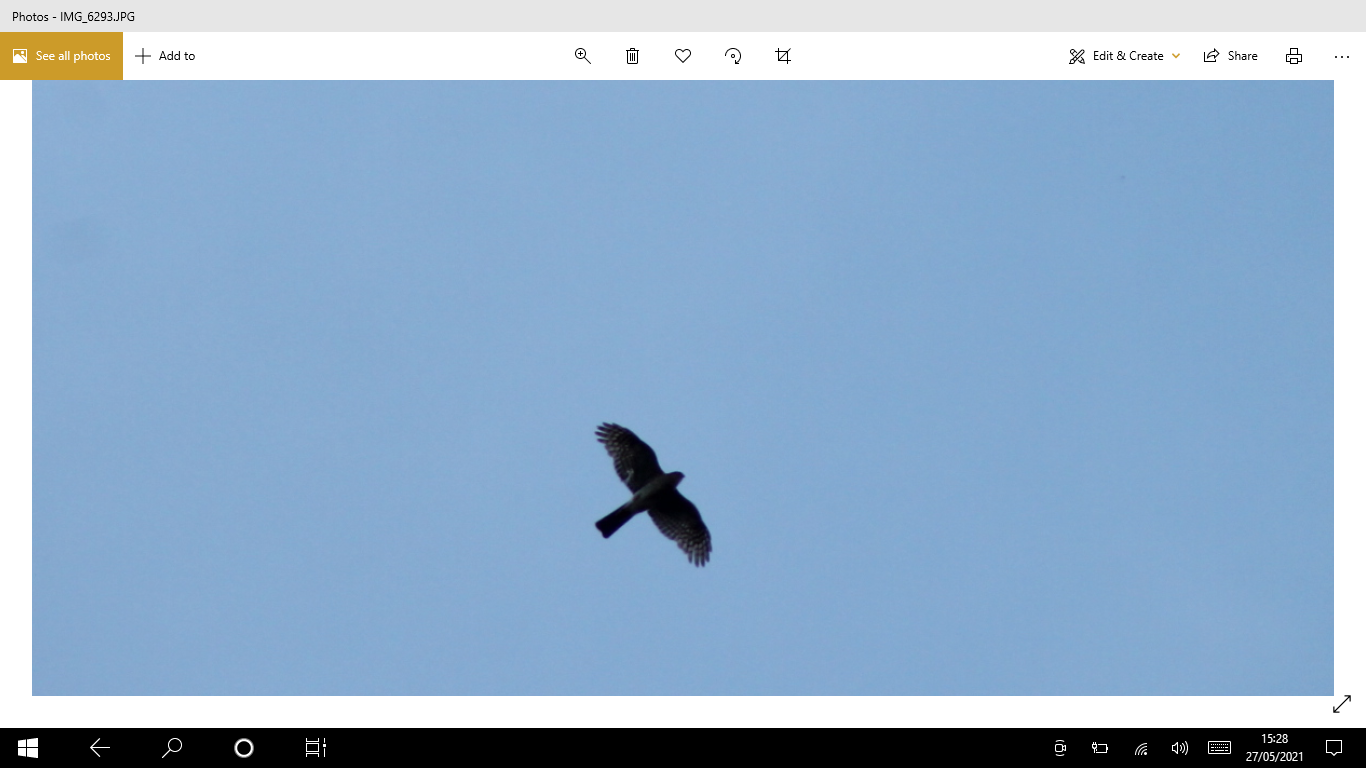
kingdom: Animalia
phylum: Chordata
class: Aves
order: Accipitriformes
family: Accipitridae
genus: Accipiter
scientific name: Accipiter nisus
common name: Eurasian sparrowhawk
